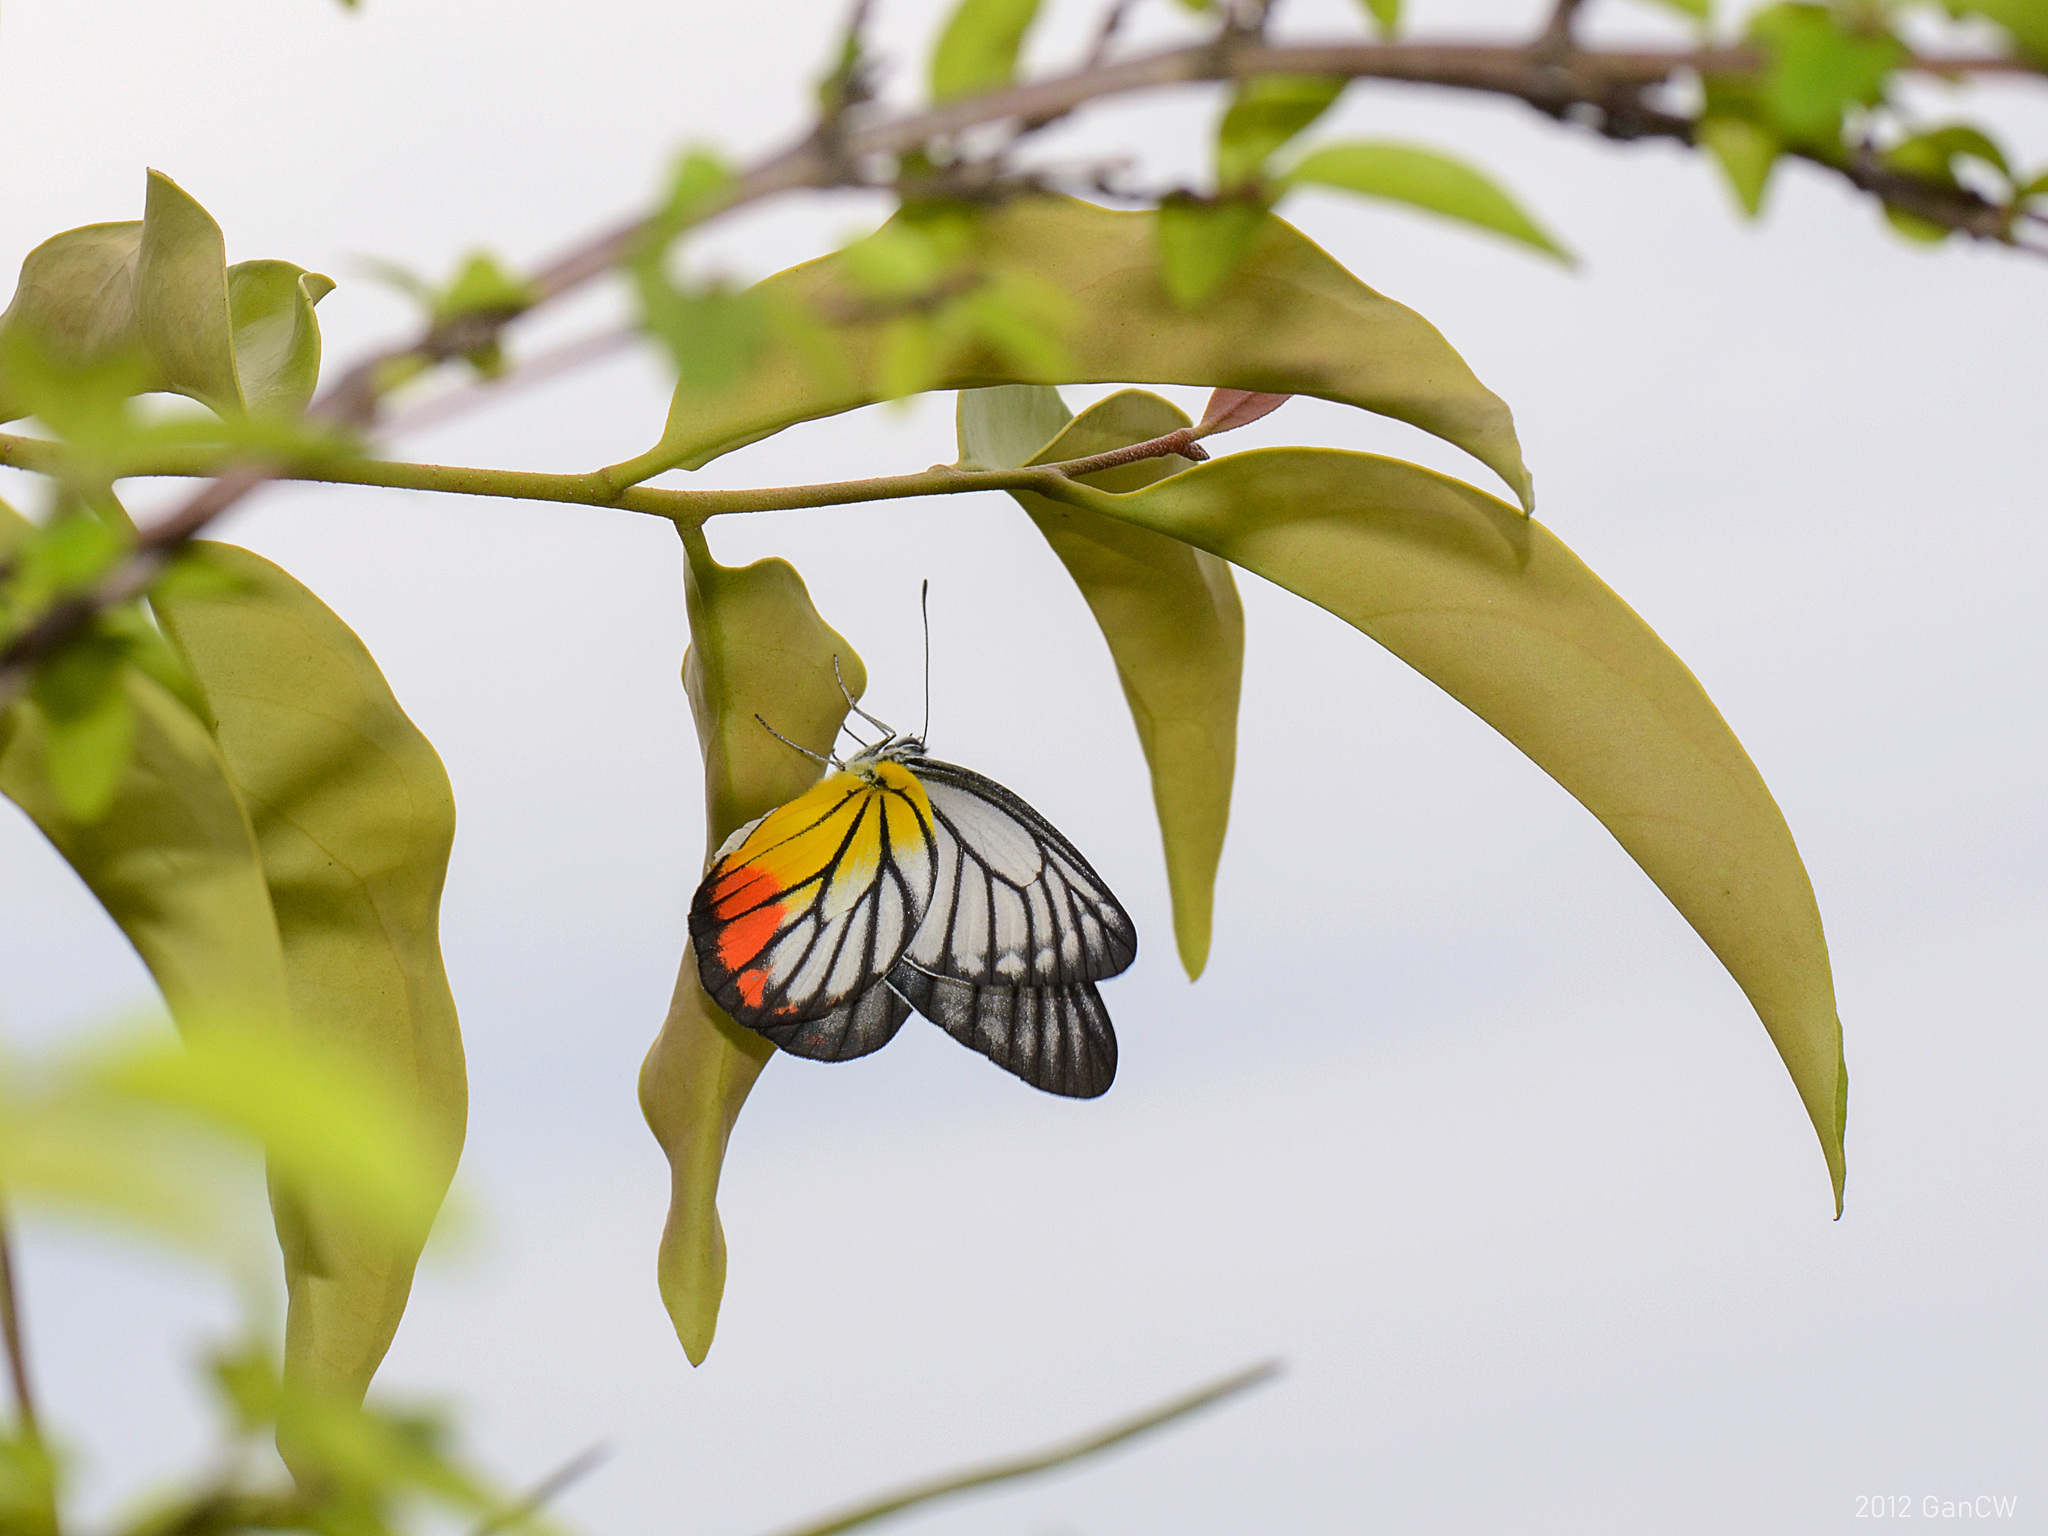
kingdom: Animalia
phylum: Arthropoda
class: Insecta
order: Lepidoptera
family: Pieridae
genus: Delias
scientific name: Delias hyparete
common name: Painted jezebel
